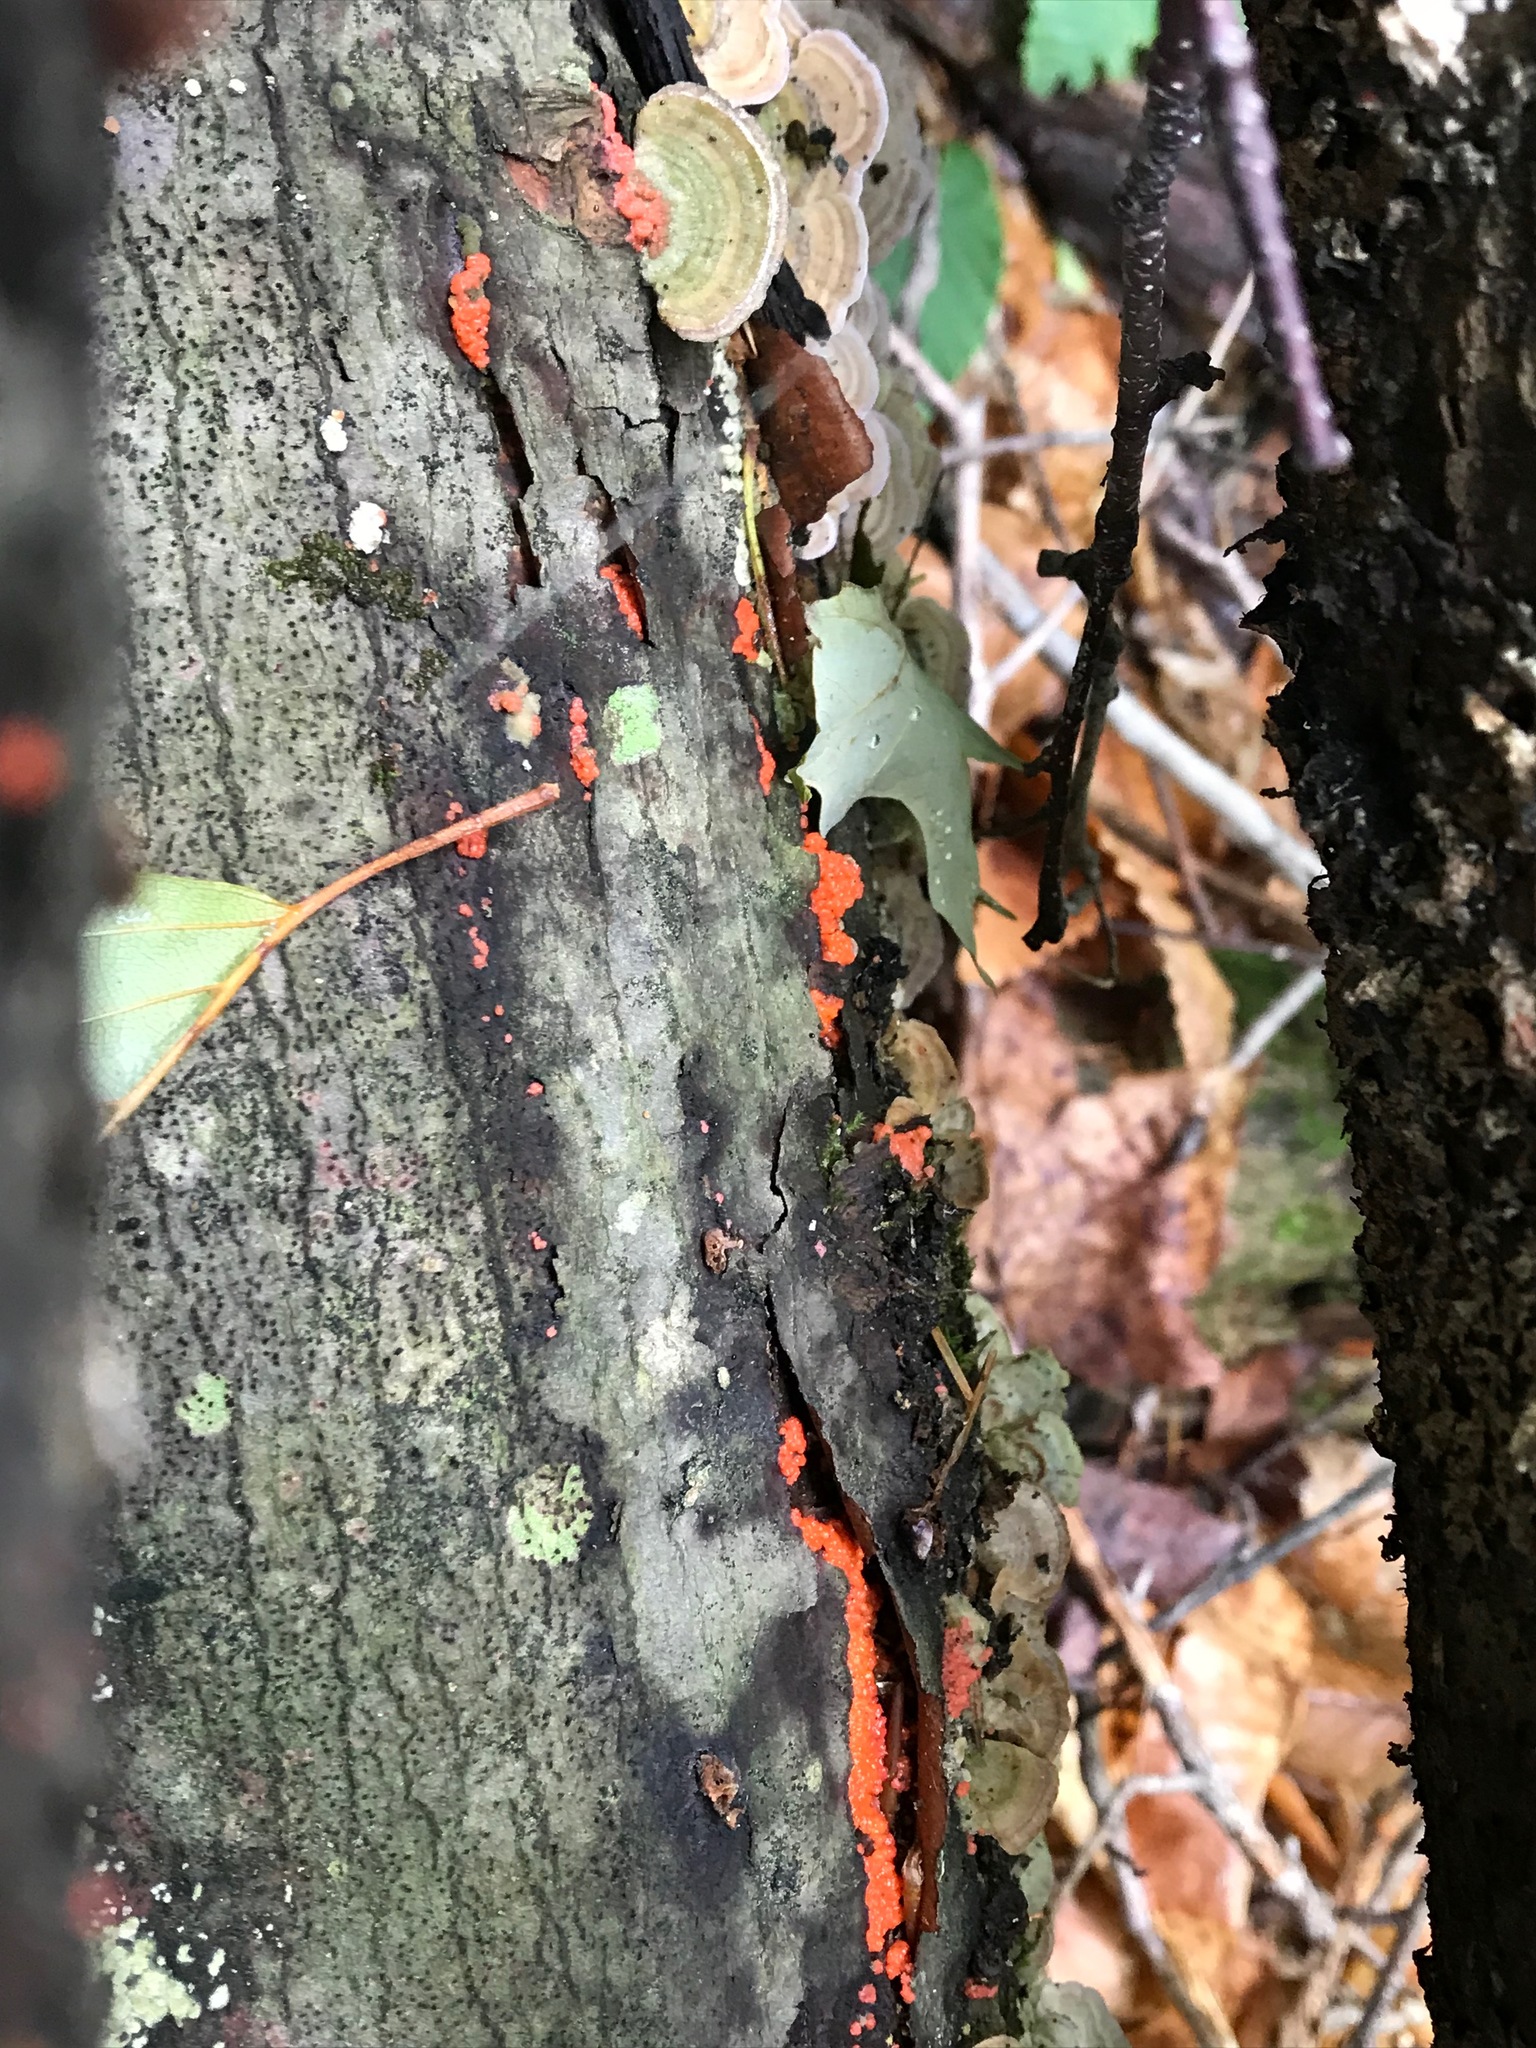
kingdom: Fungi
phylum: Basidiomycota
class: Agaricomycetes
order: Cantharellales
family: Tulasnellaceae
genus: Tulasnella
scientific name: Tulasnella aurantiaca
